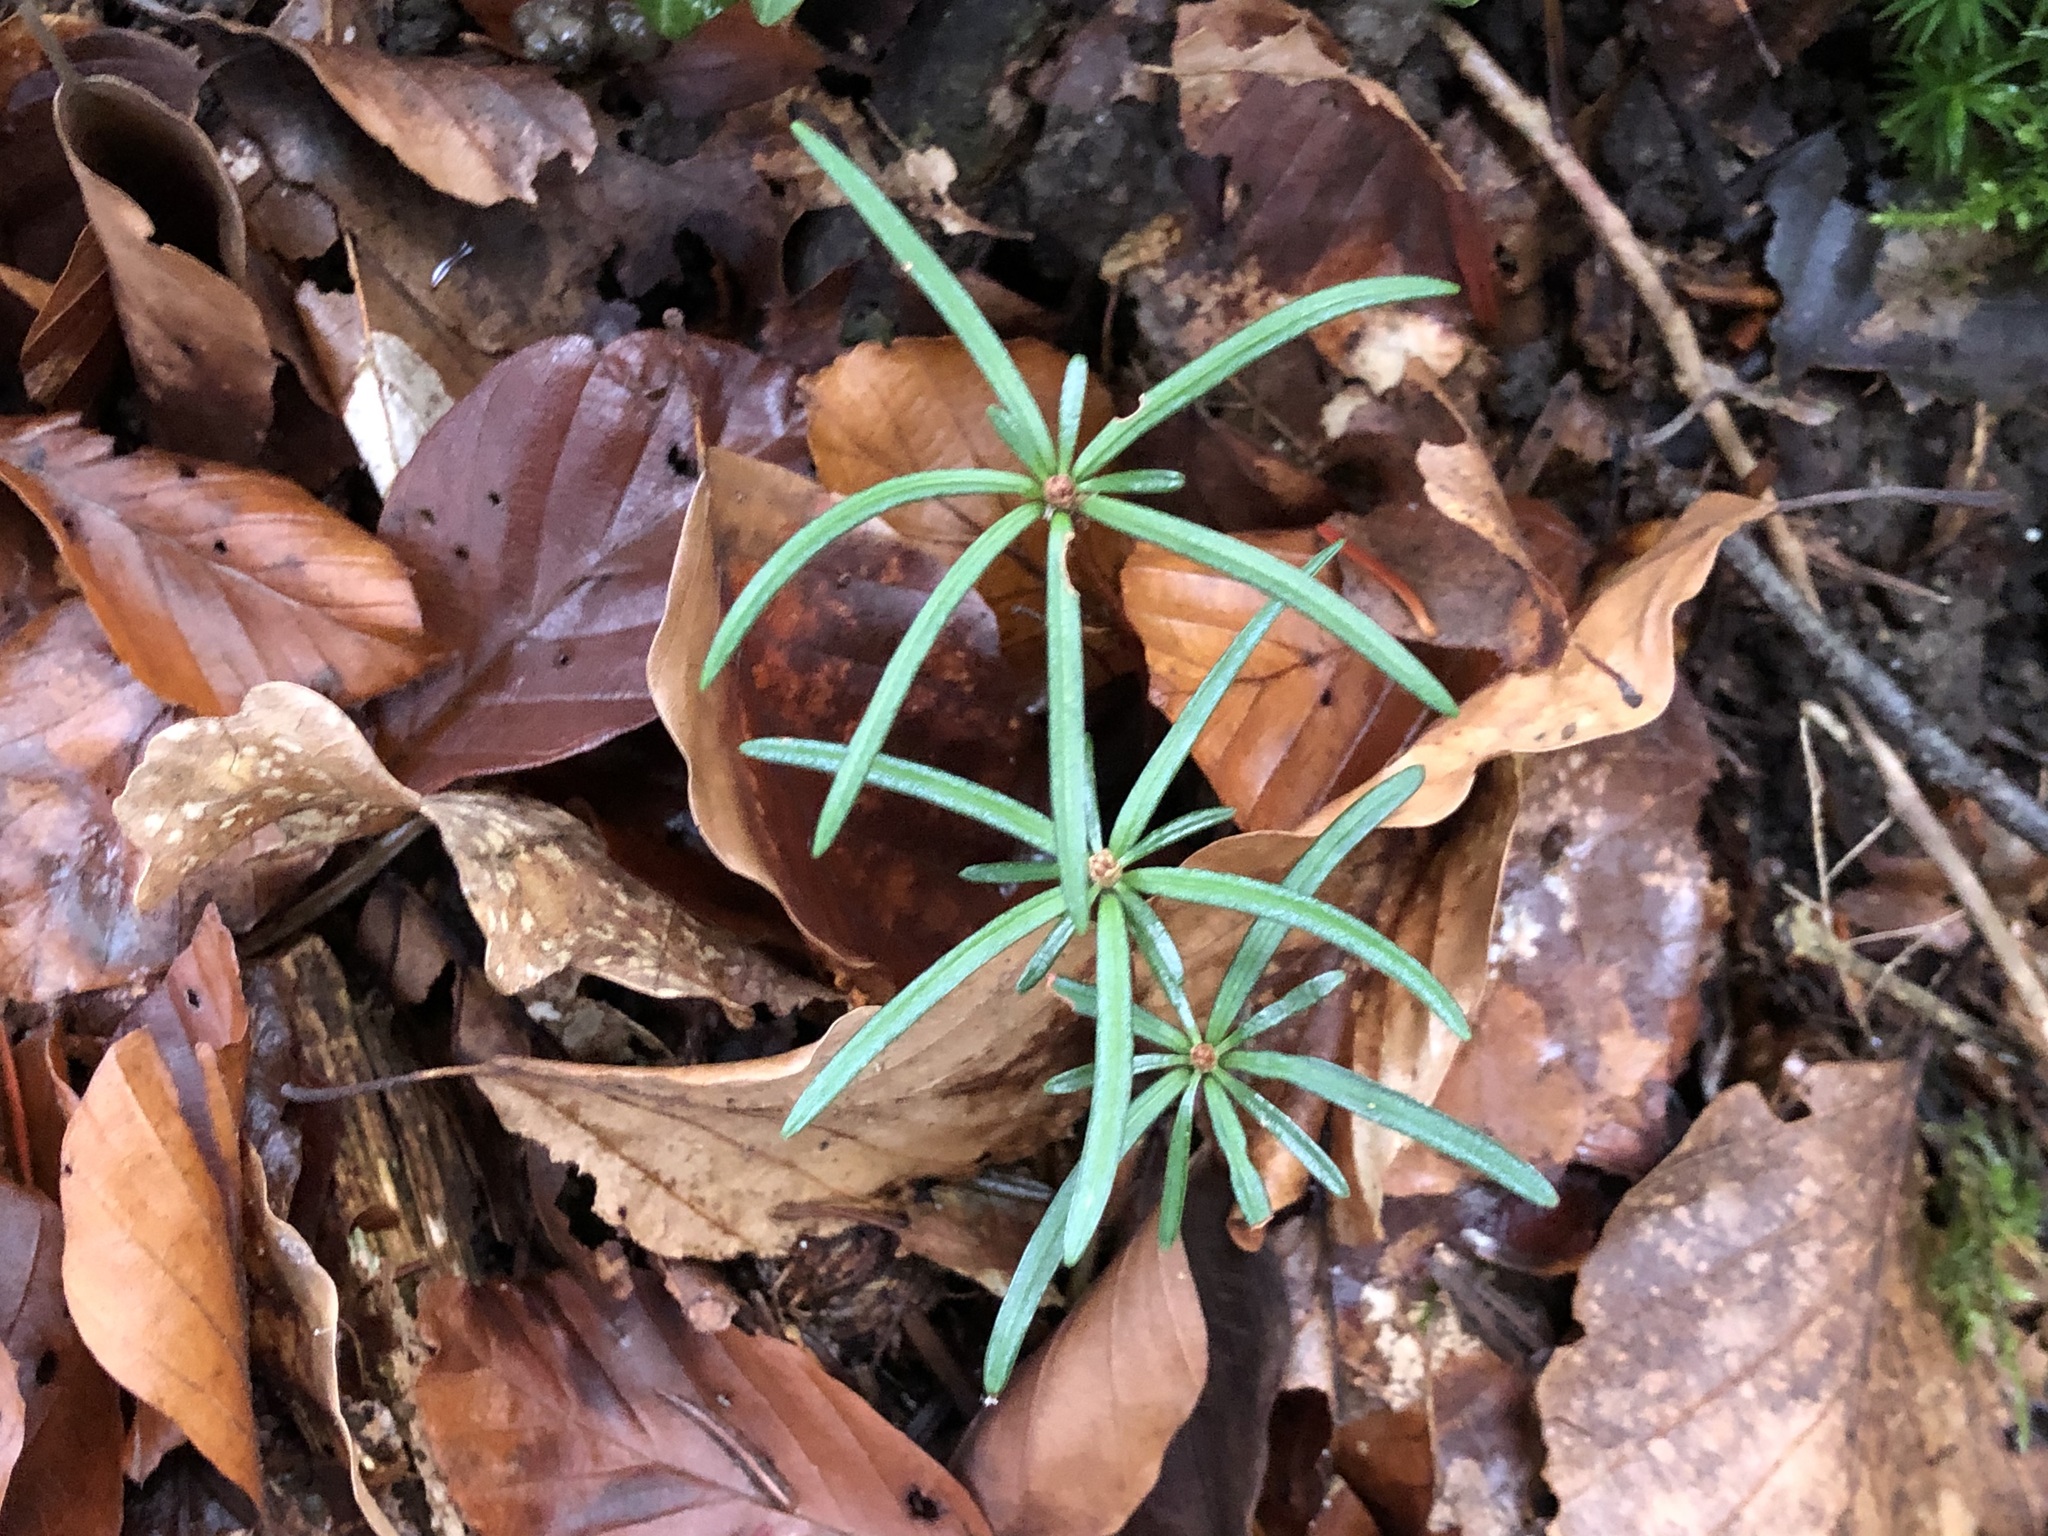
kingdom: Plantae
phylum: Tracheophyta
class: Pinopsida
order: Pinales
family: Pinaceae
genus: Abies
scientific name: Abies alba
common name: Silver fir
